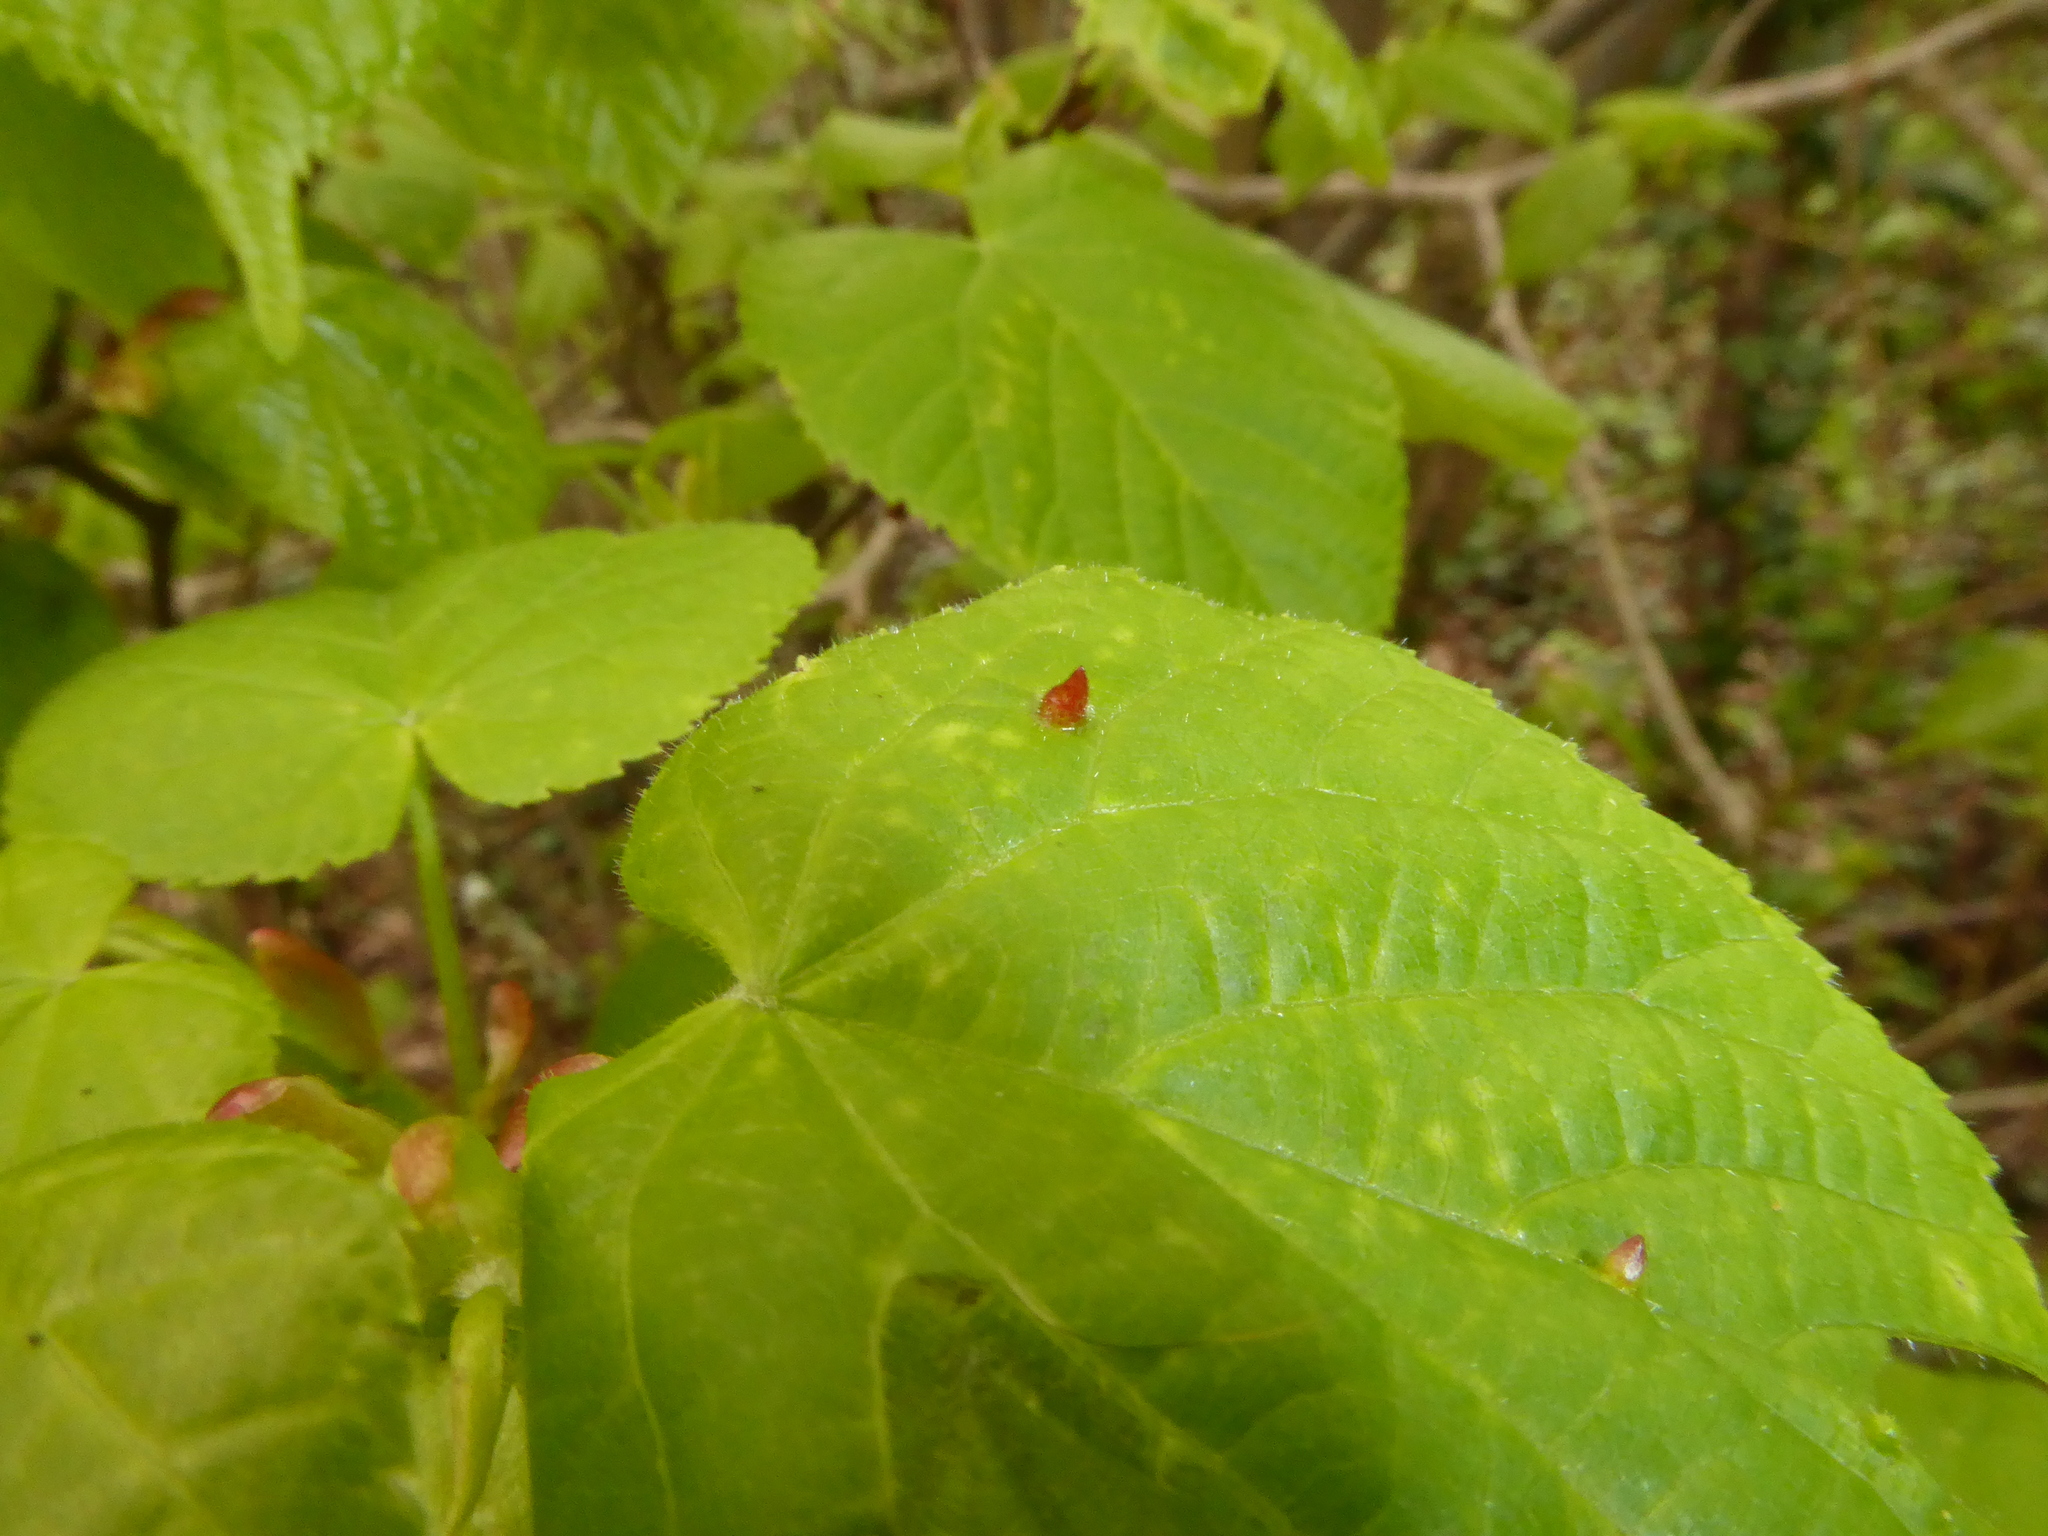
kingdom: Animalia
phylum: Arthropoda
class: Arachnida
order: Trombidiformes
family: Eriophyidae
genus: Eriophyes
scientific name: Eriophyes tiliae
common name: Red nail gall mite
